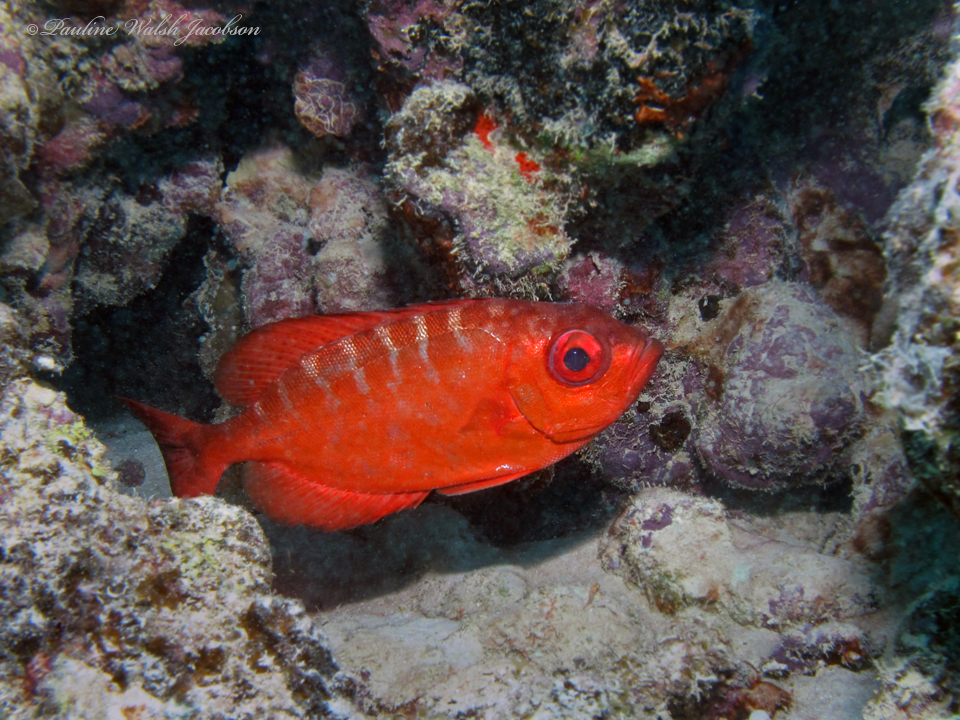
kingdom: Animalia
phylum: Chordata
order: Perciformes
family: Priacanthidae
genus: Heteropriacanthus
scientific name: Heteropriacanthus cruentatus
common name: Glasseye
